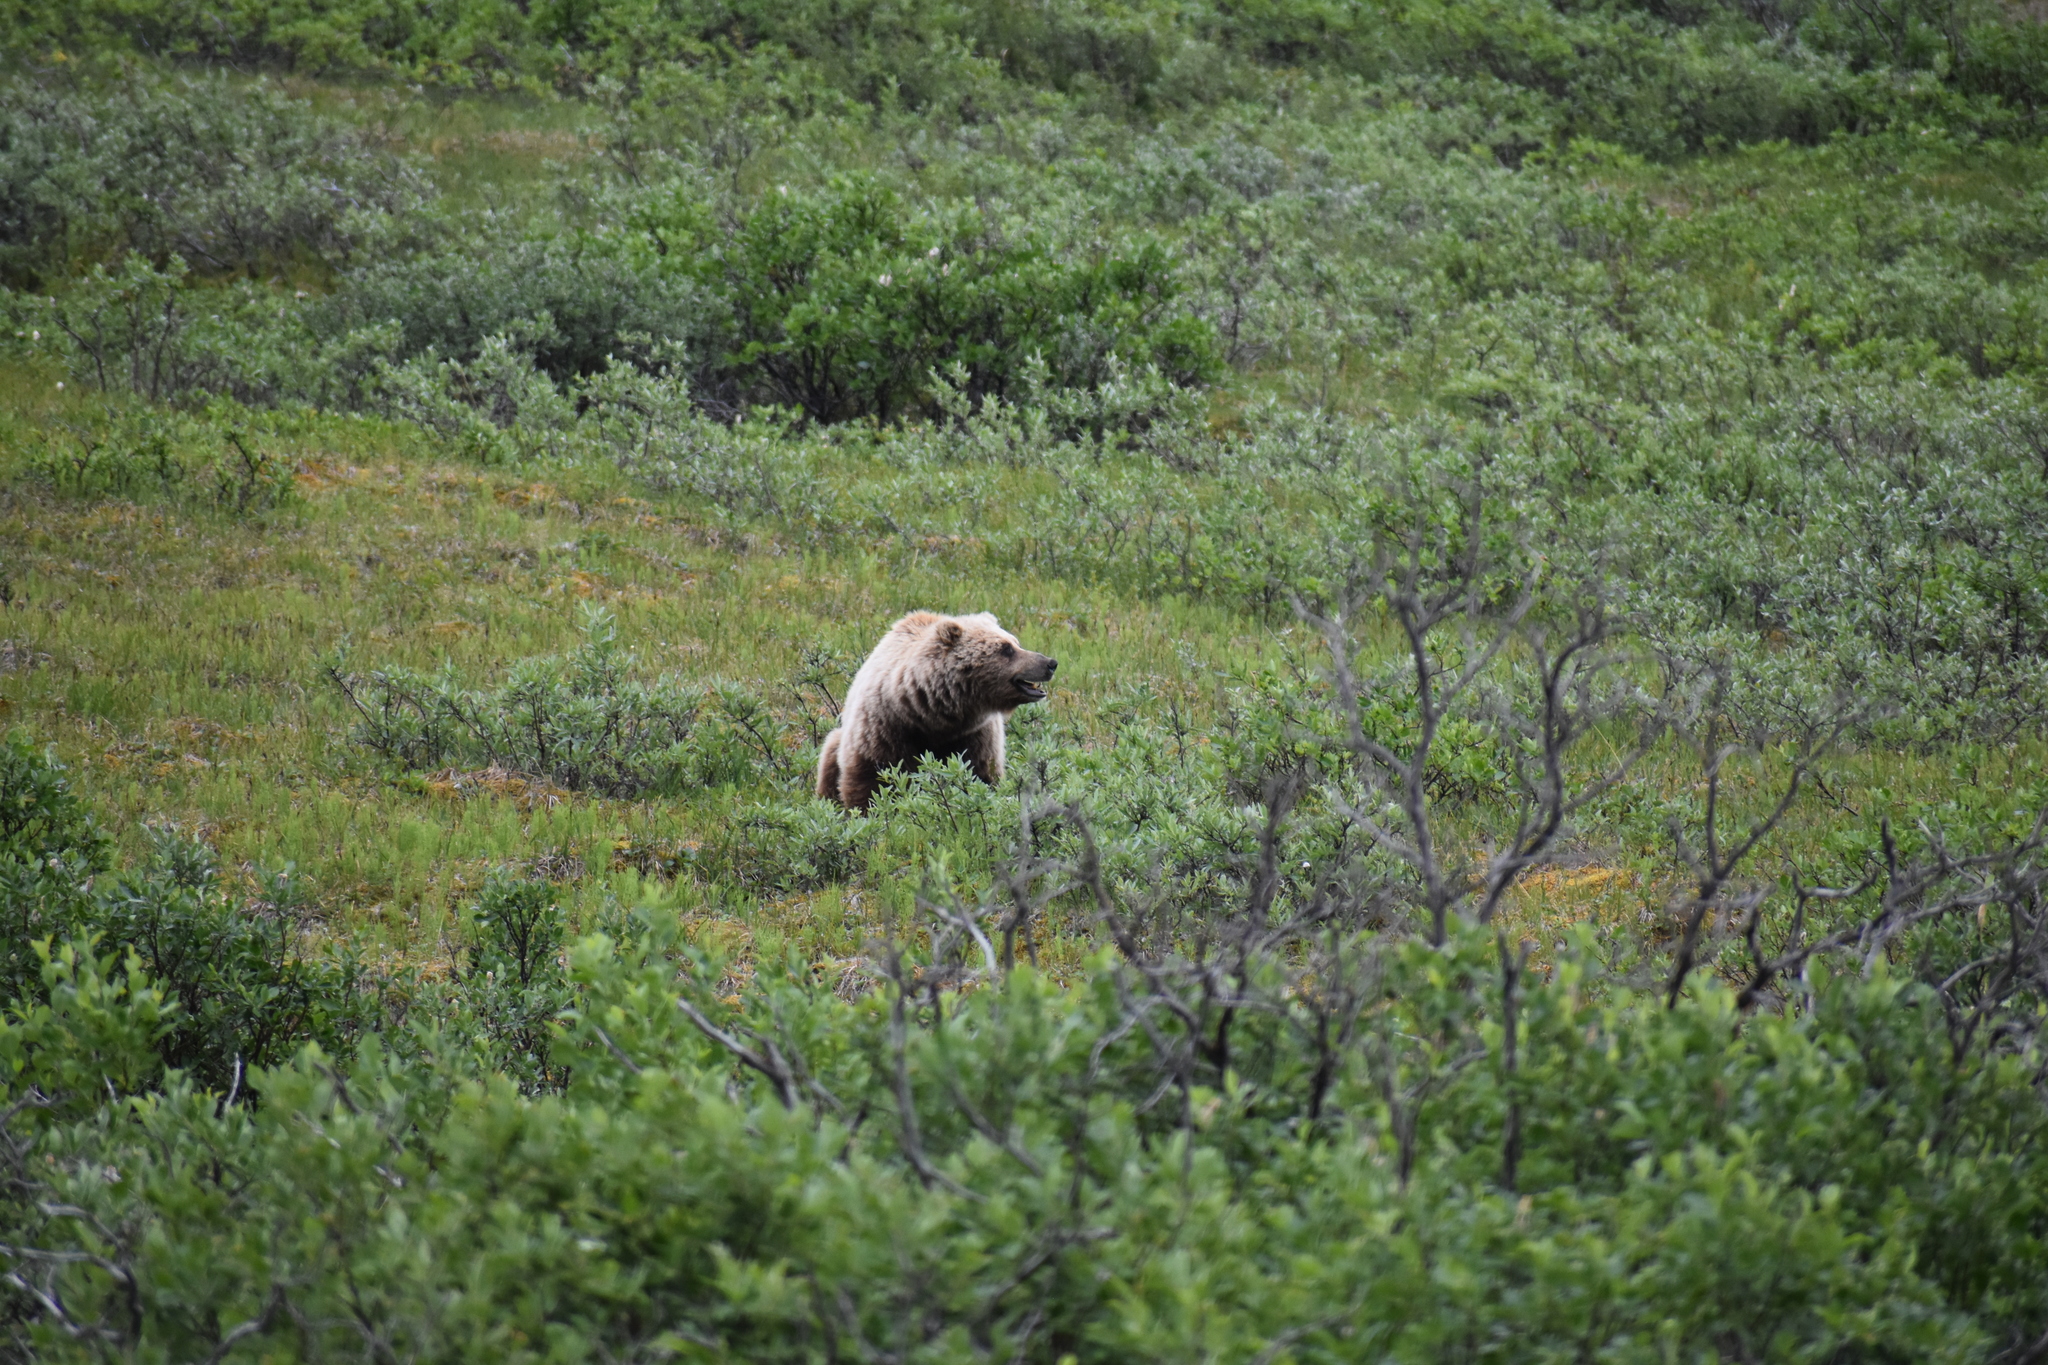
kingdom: Animalia
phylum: Chordata
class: Mammalia
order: Carnivora
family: Ursidae
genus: Ursus
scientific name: Ursus arctos
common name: Brown bear
